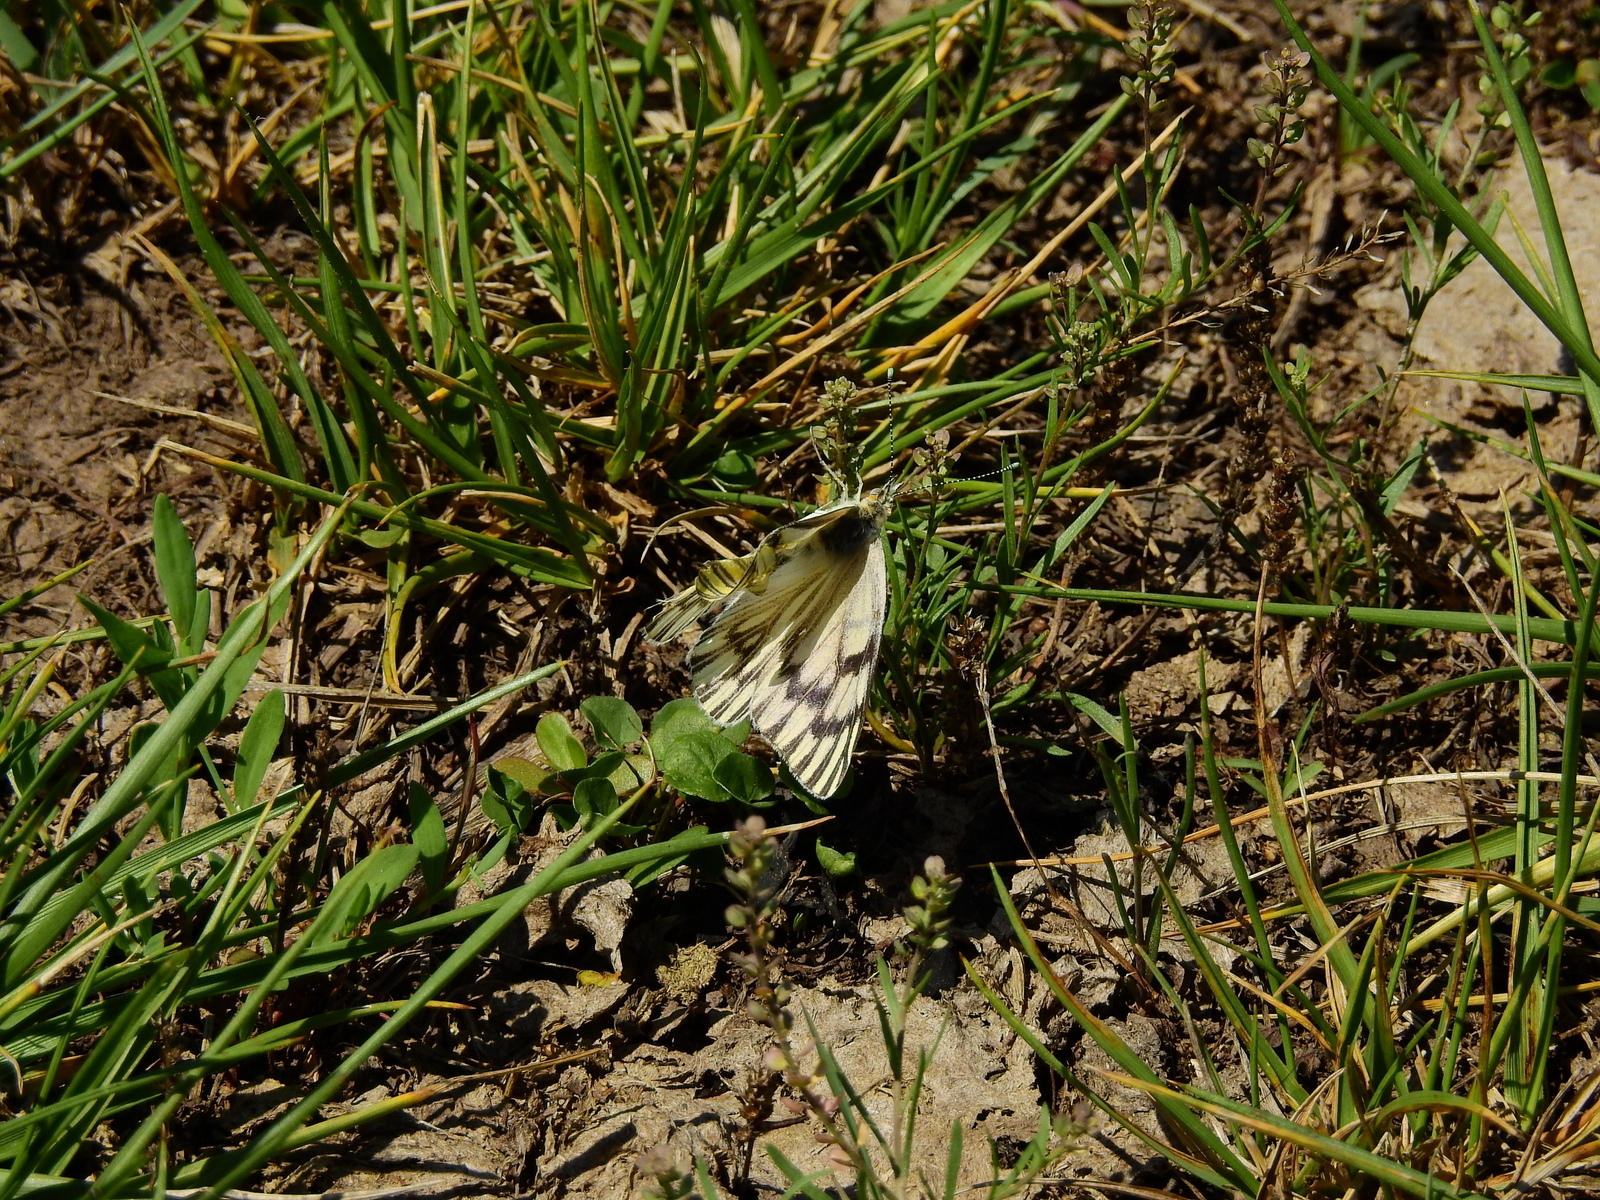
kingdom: Animalia
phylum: Arthropoda
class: Insecta
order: Lepidoptera
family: Pieridae
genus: Tatochila
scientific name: Tatochila mercedis
